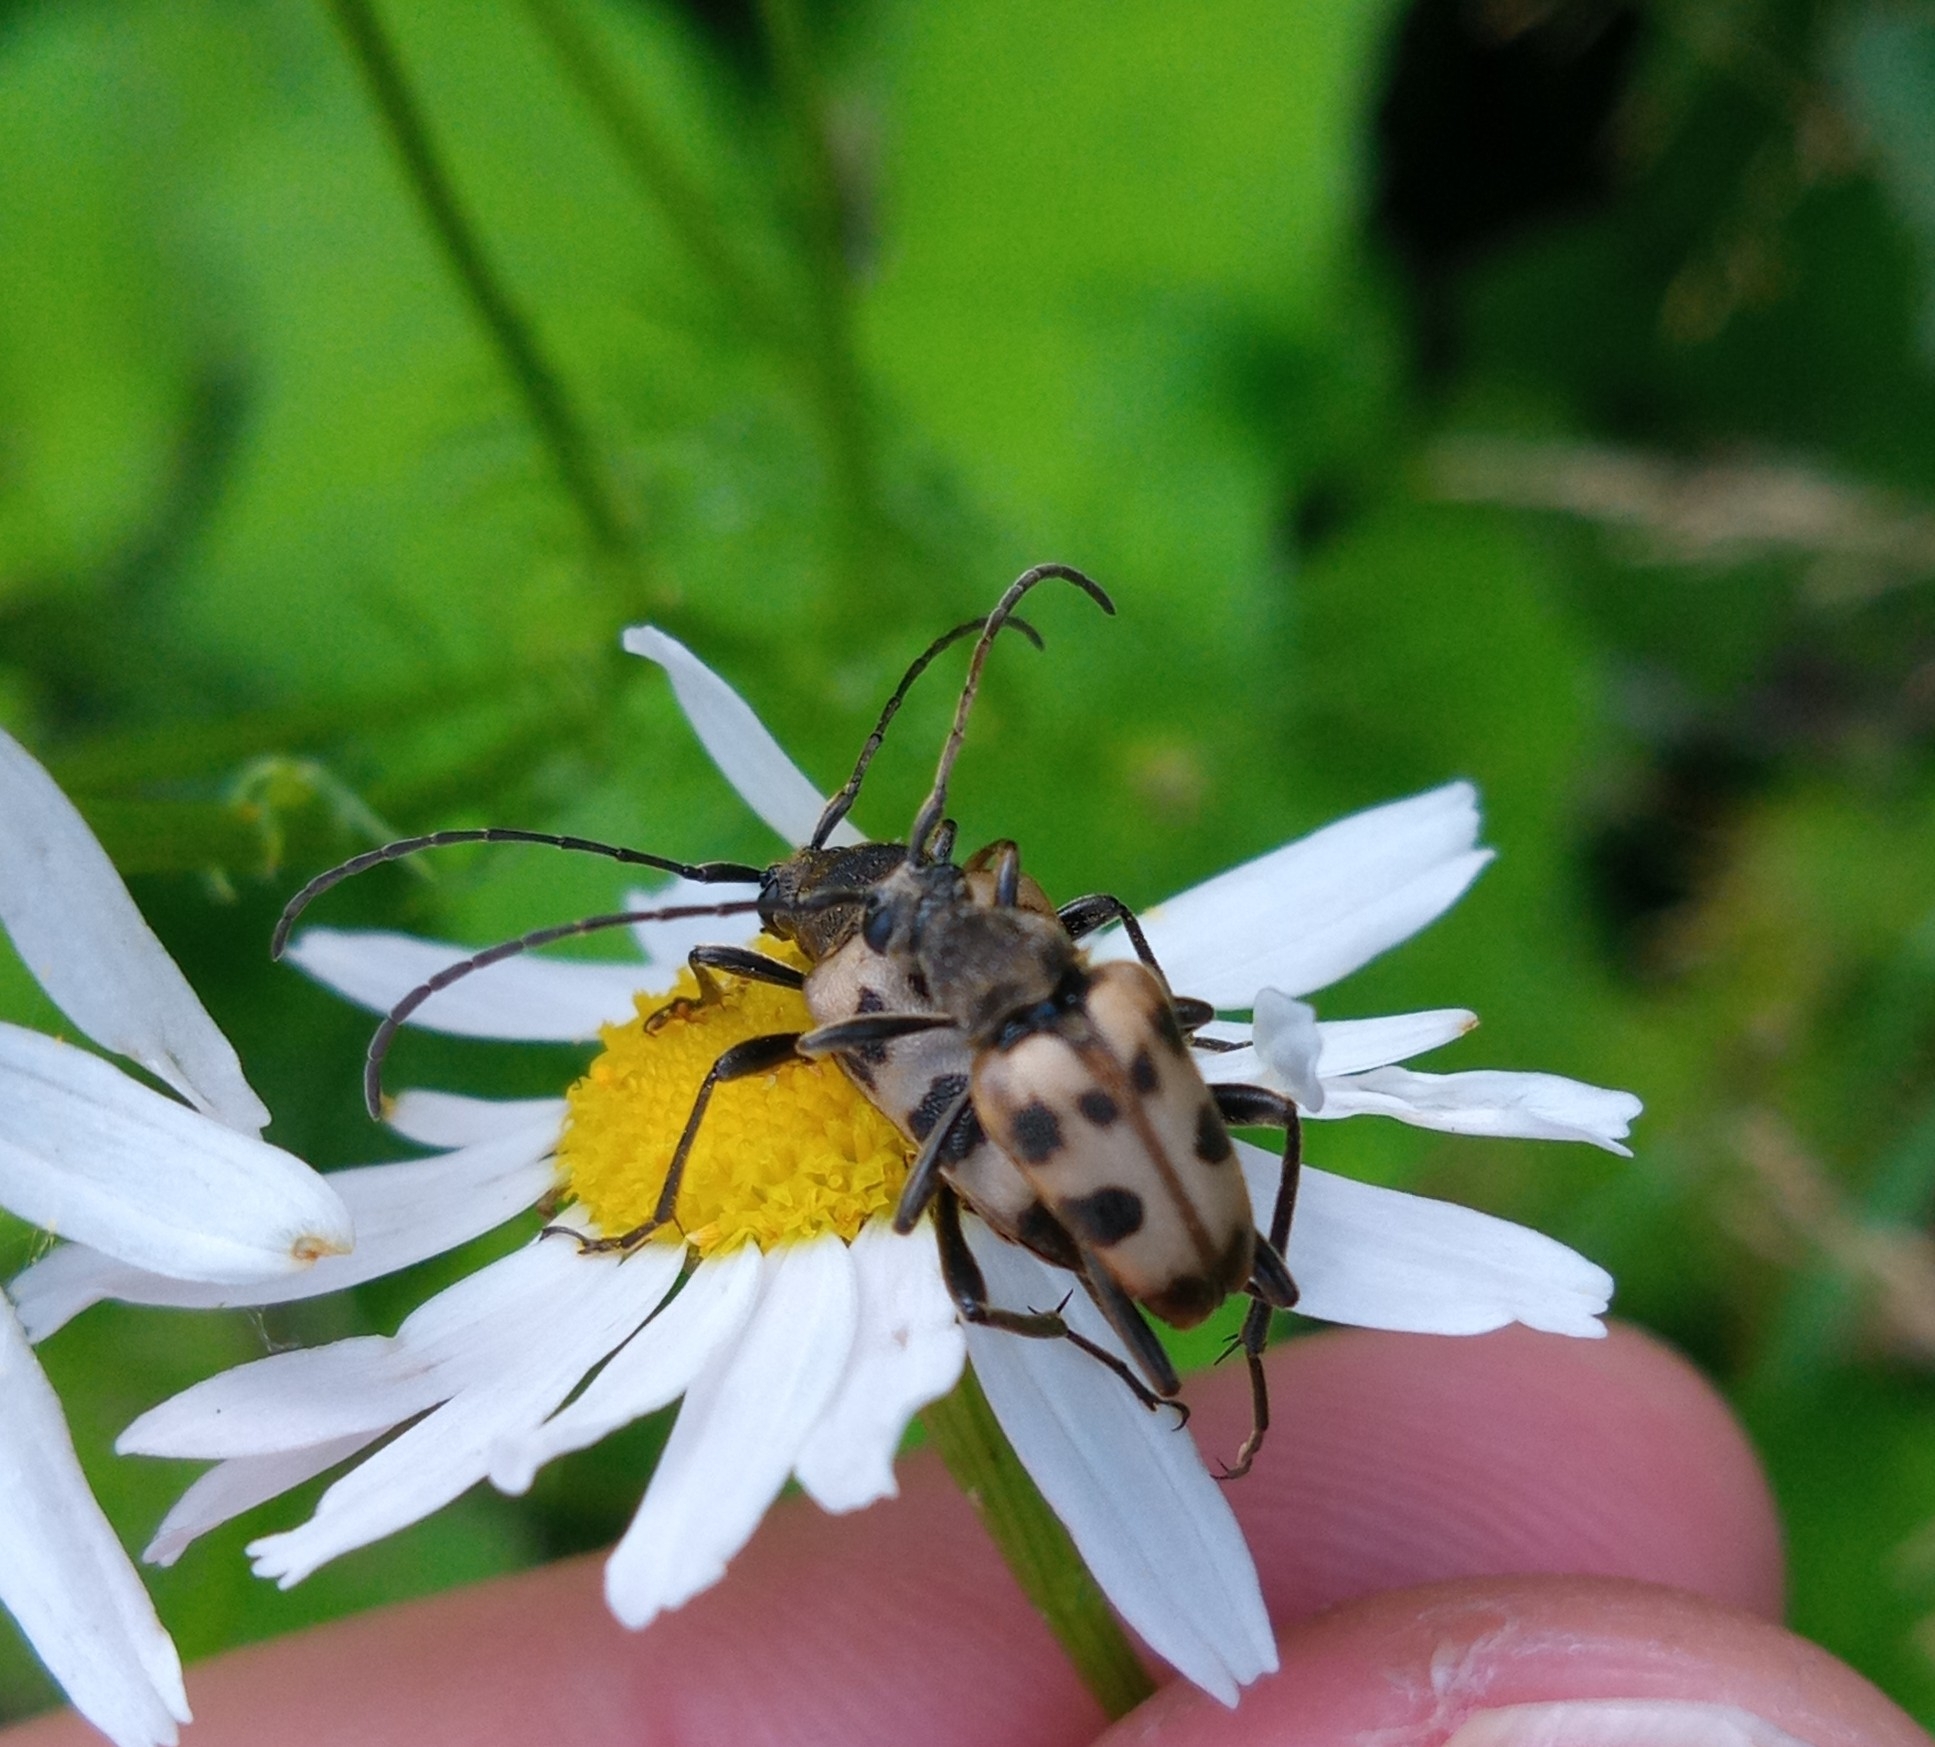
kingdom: Animalia
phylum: Arthropoda
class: Insecta
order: Coleoptera
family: Cerambycidae
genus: Pachytodes
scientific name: Pachytodes cerambyciformis
